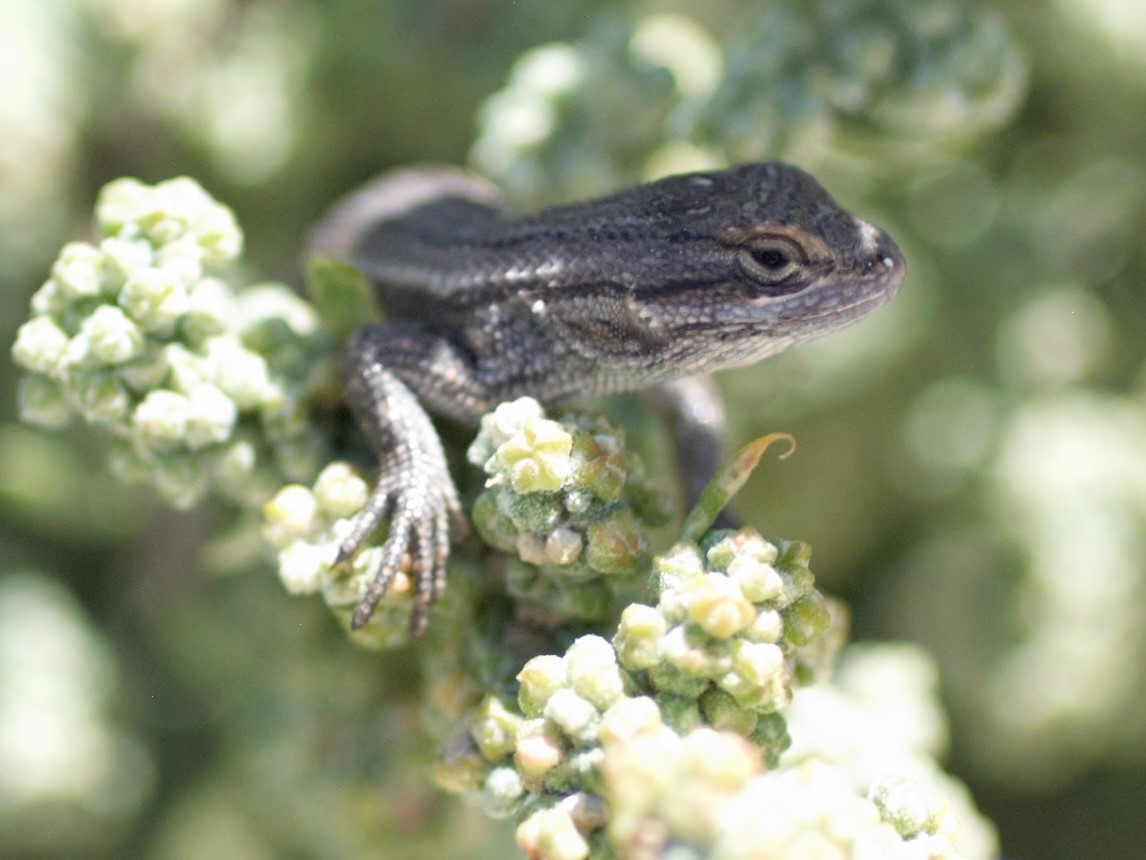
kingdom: Animalia
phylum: Chordata
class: Squamata
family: Phrynosomatidae
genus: Sceloporus
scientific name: Sceloporus cowlesi
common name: White sands prairie lizard
